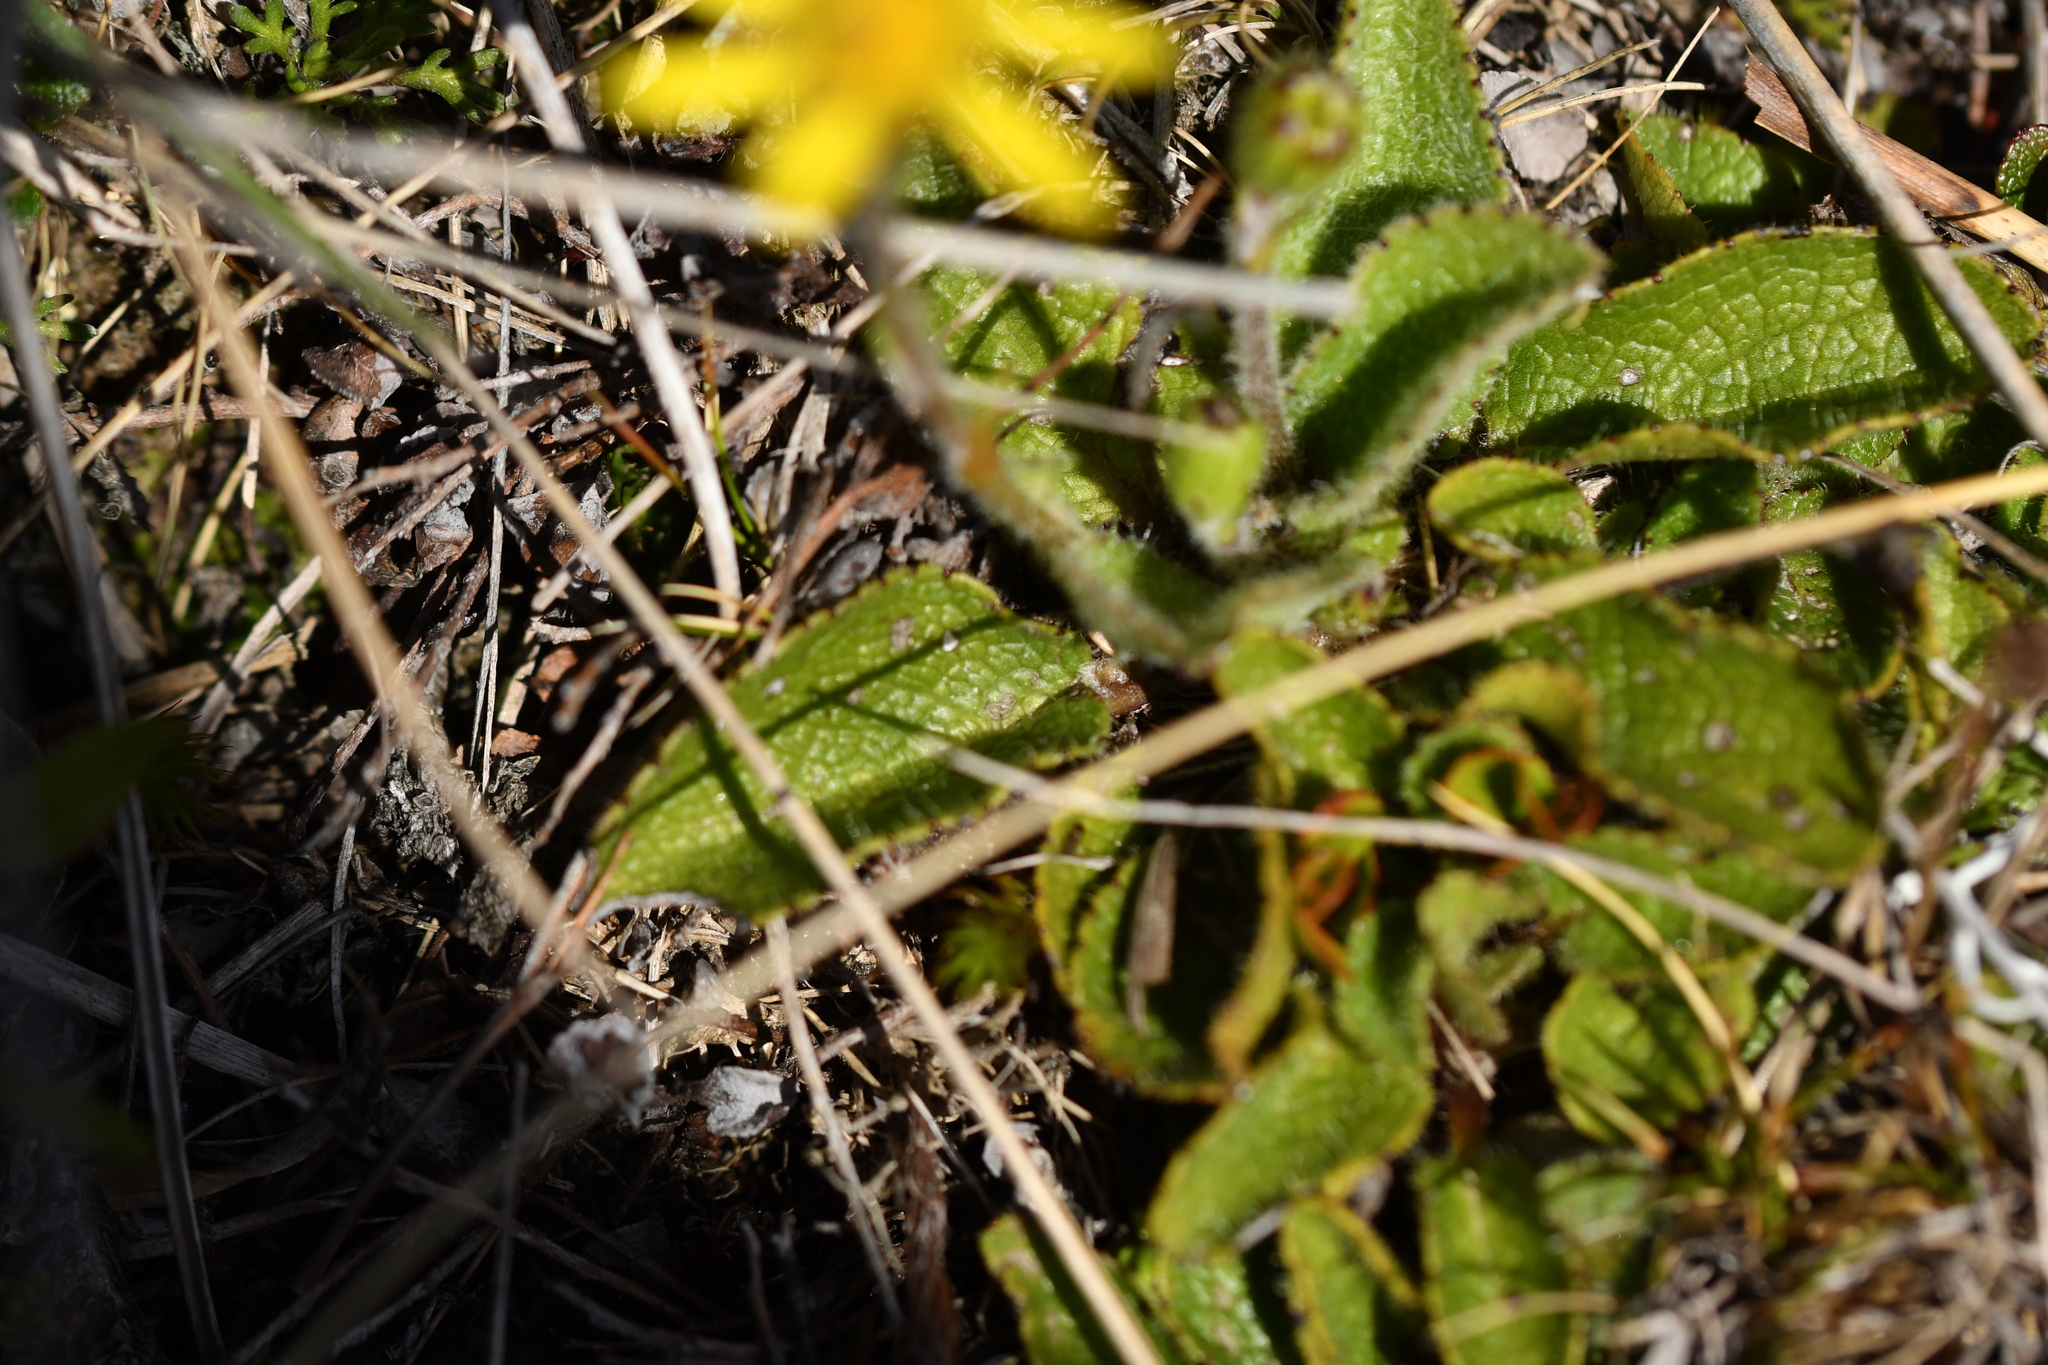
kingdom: Plantae
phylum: Tracheophyta
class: Magnoliopsida
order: Asterales
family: Asteraceae
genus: Brachyglottis
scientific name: Brachyglottis bellidioides
